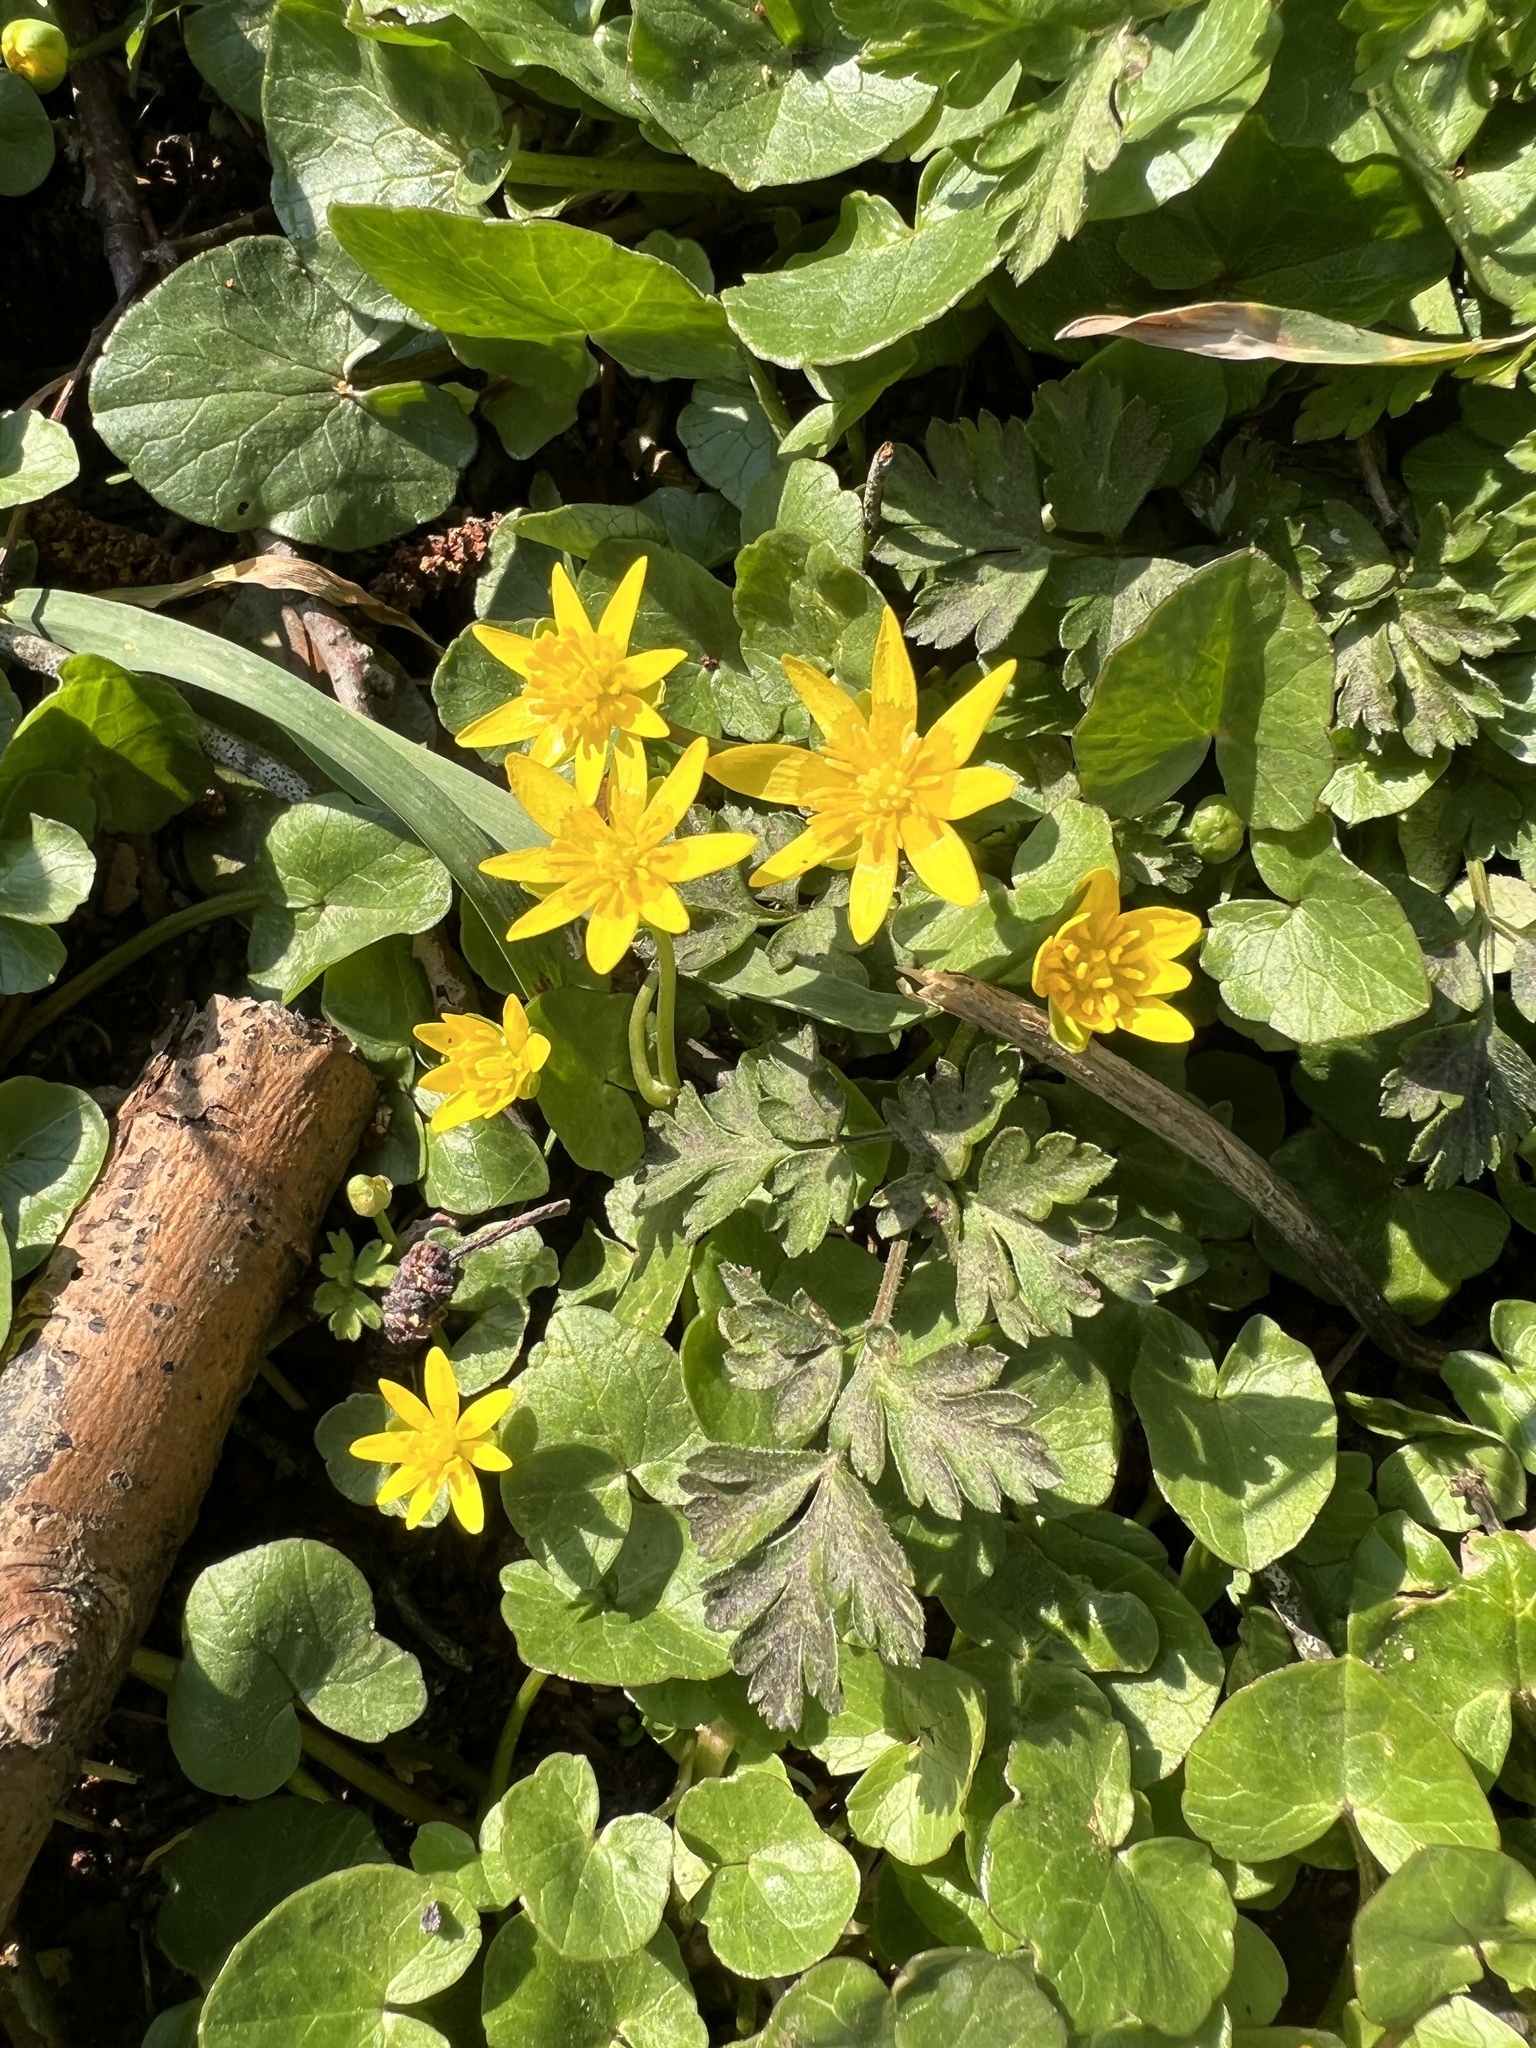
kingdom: Plantae
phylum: Tracheophyta
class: Magnoliopsida
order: Ranunculales
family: Ranunculaceae
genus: Ficaria
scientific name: Ficaria verna
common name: Lesser celandine
